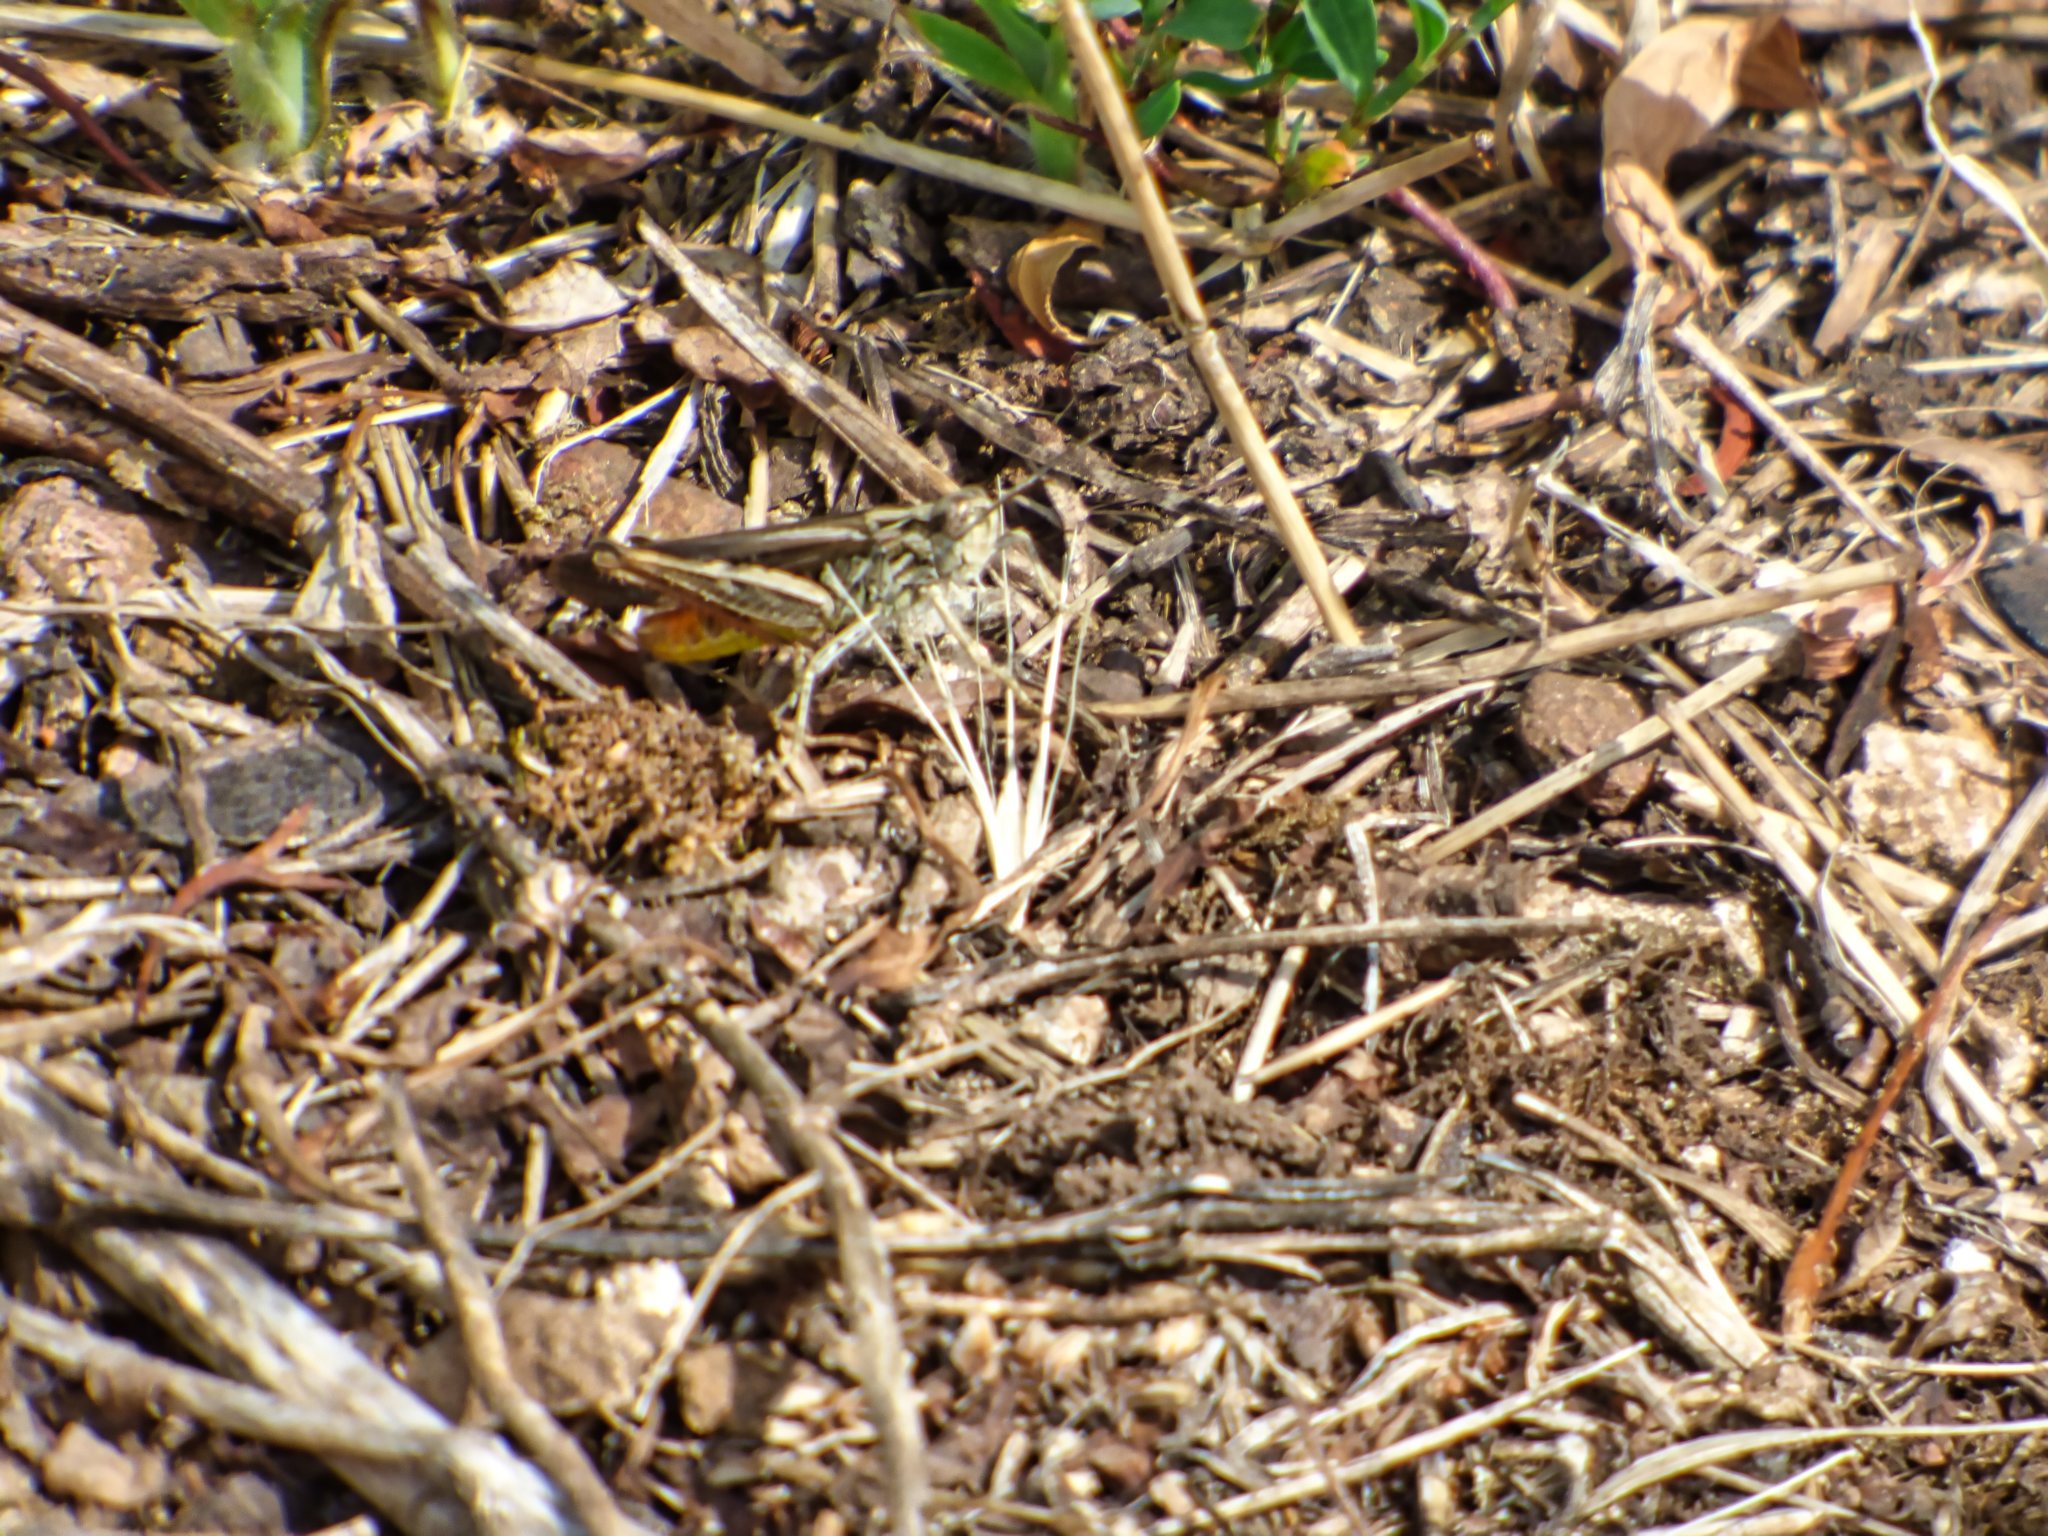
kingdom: Animalia
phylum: Arthropoda
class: Insecta
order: Orthoptera
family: Acrididae
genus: Chorthippus
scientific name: Chorthippus brunneus
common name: Field grasshopper
